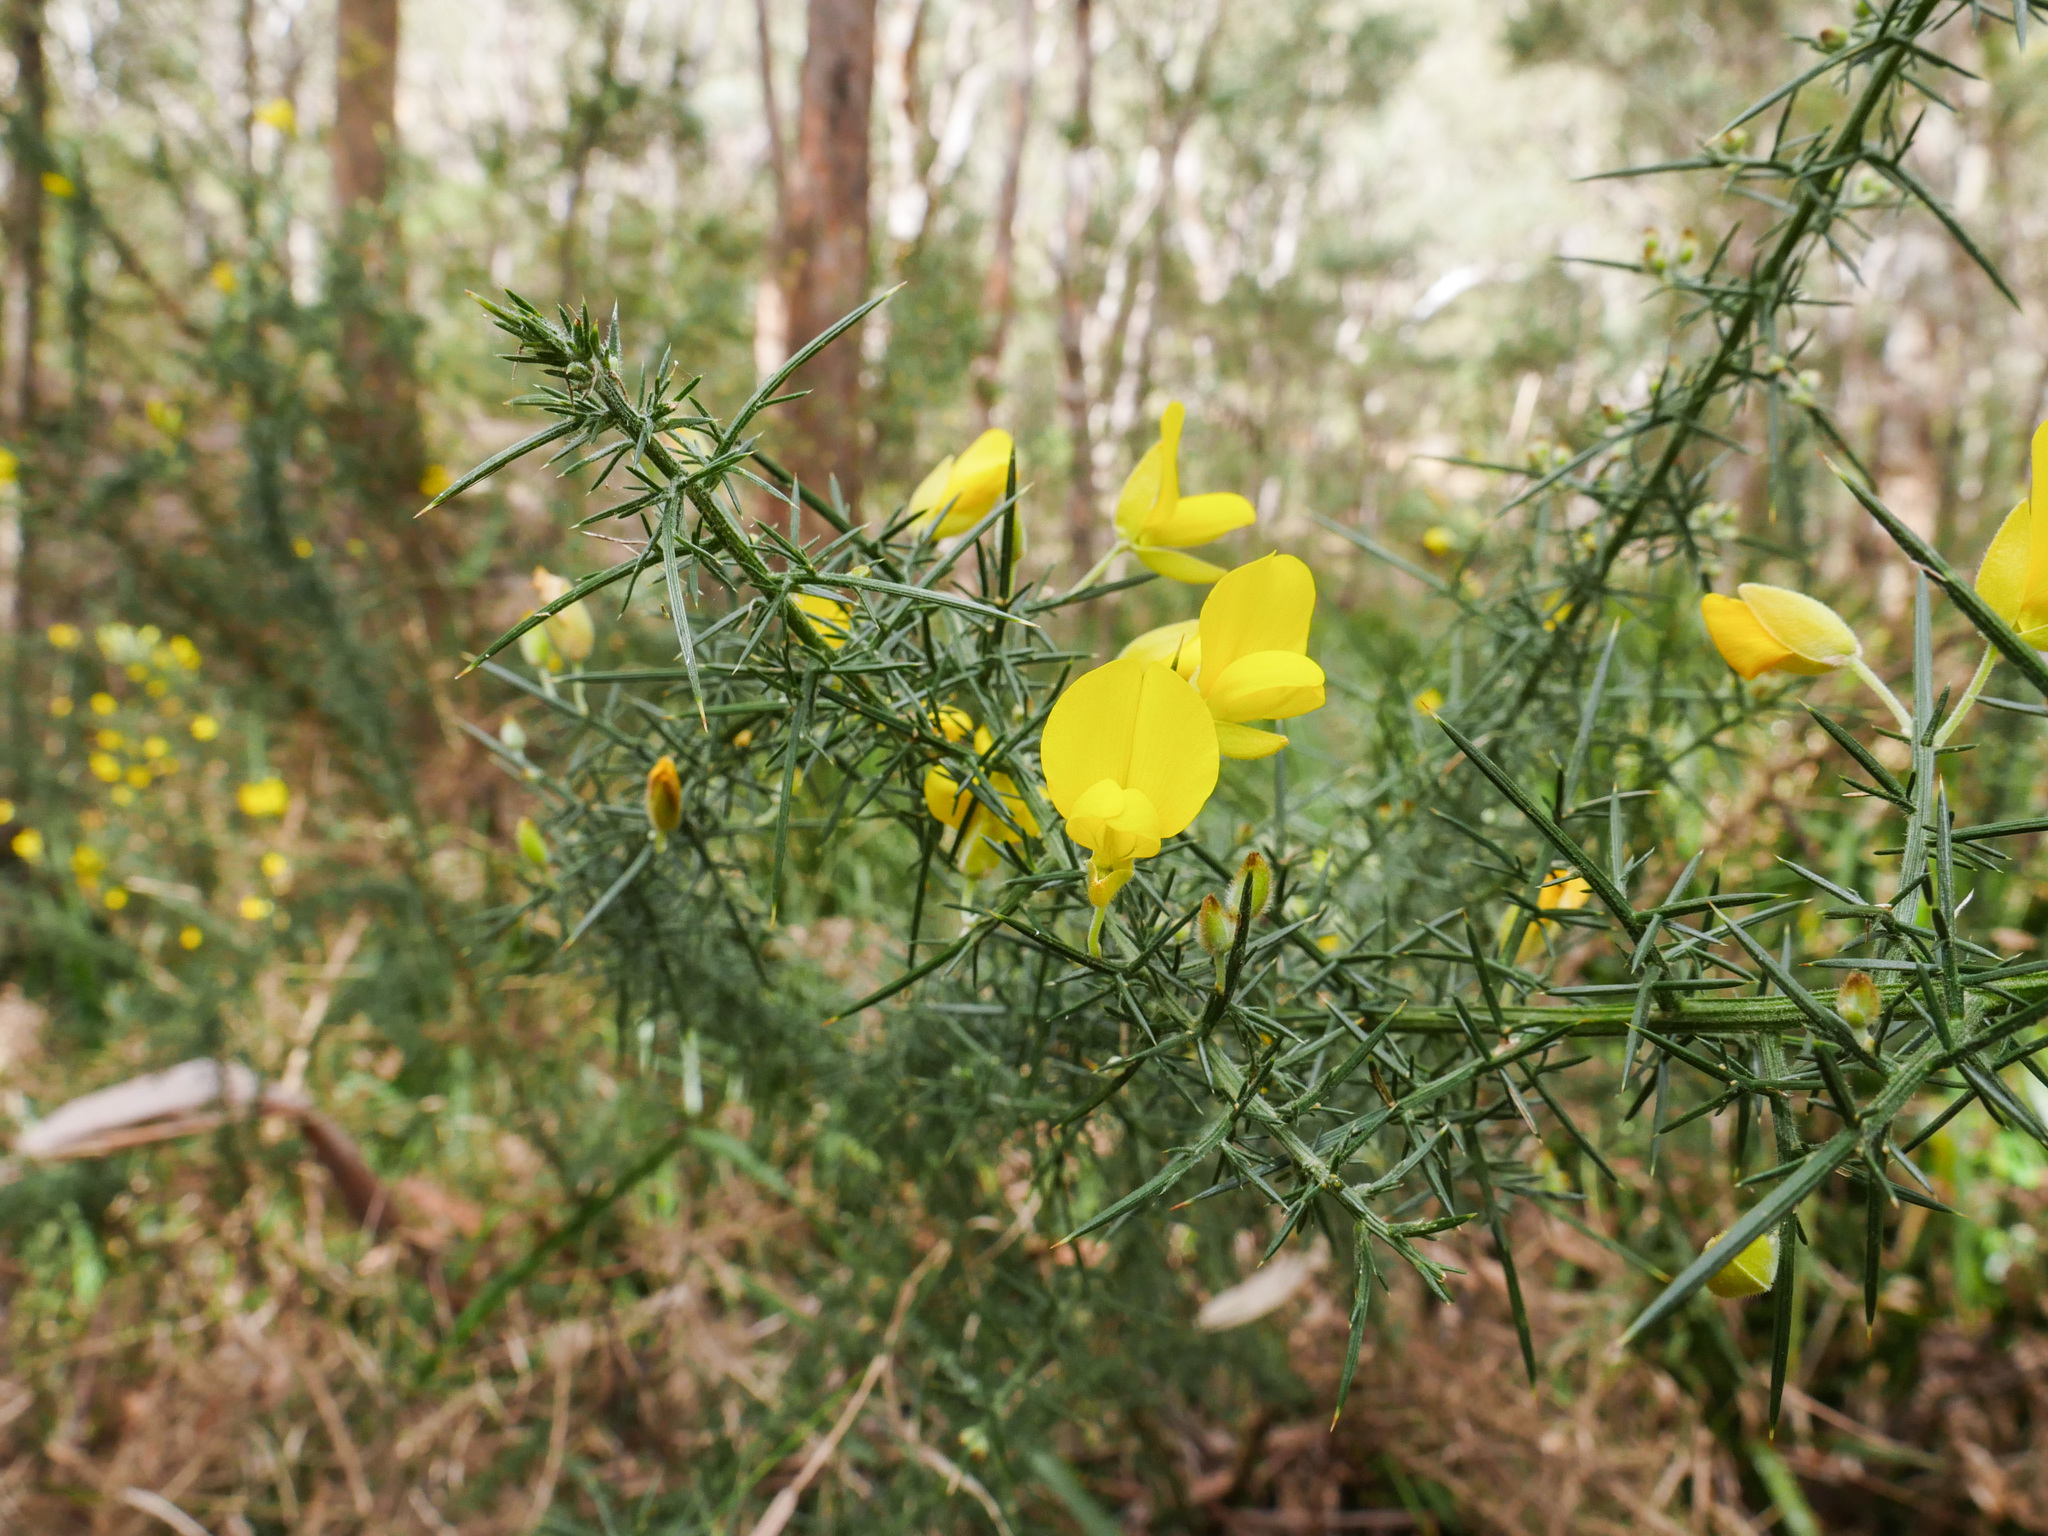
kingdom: Plantae
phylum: Tracheophyta
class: Magnoliopsida
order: Fabales
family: Fabaceae
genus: Ulex
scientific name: Ulex europaeus
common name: Common gorse
